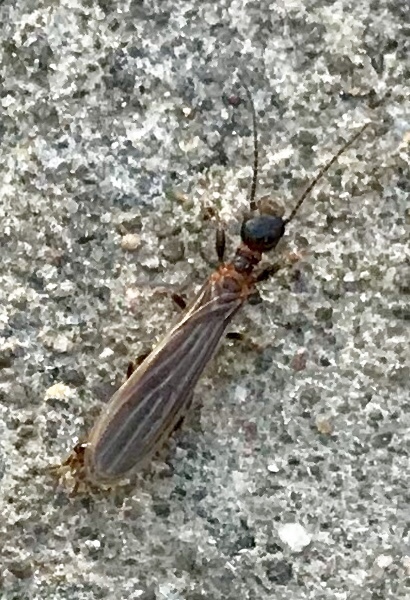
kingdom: Animalia
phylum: Arthropoda
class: Insecta
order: Embioptera
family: Oligotomidae
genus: Oligotoma
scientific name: Oligotoma saundersii
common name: Webspinner
